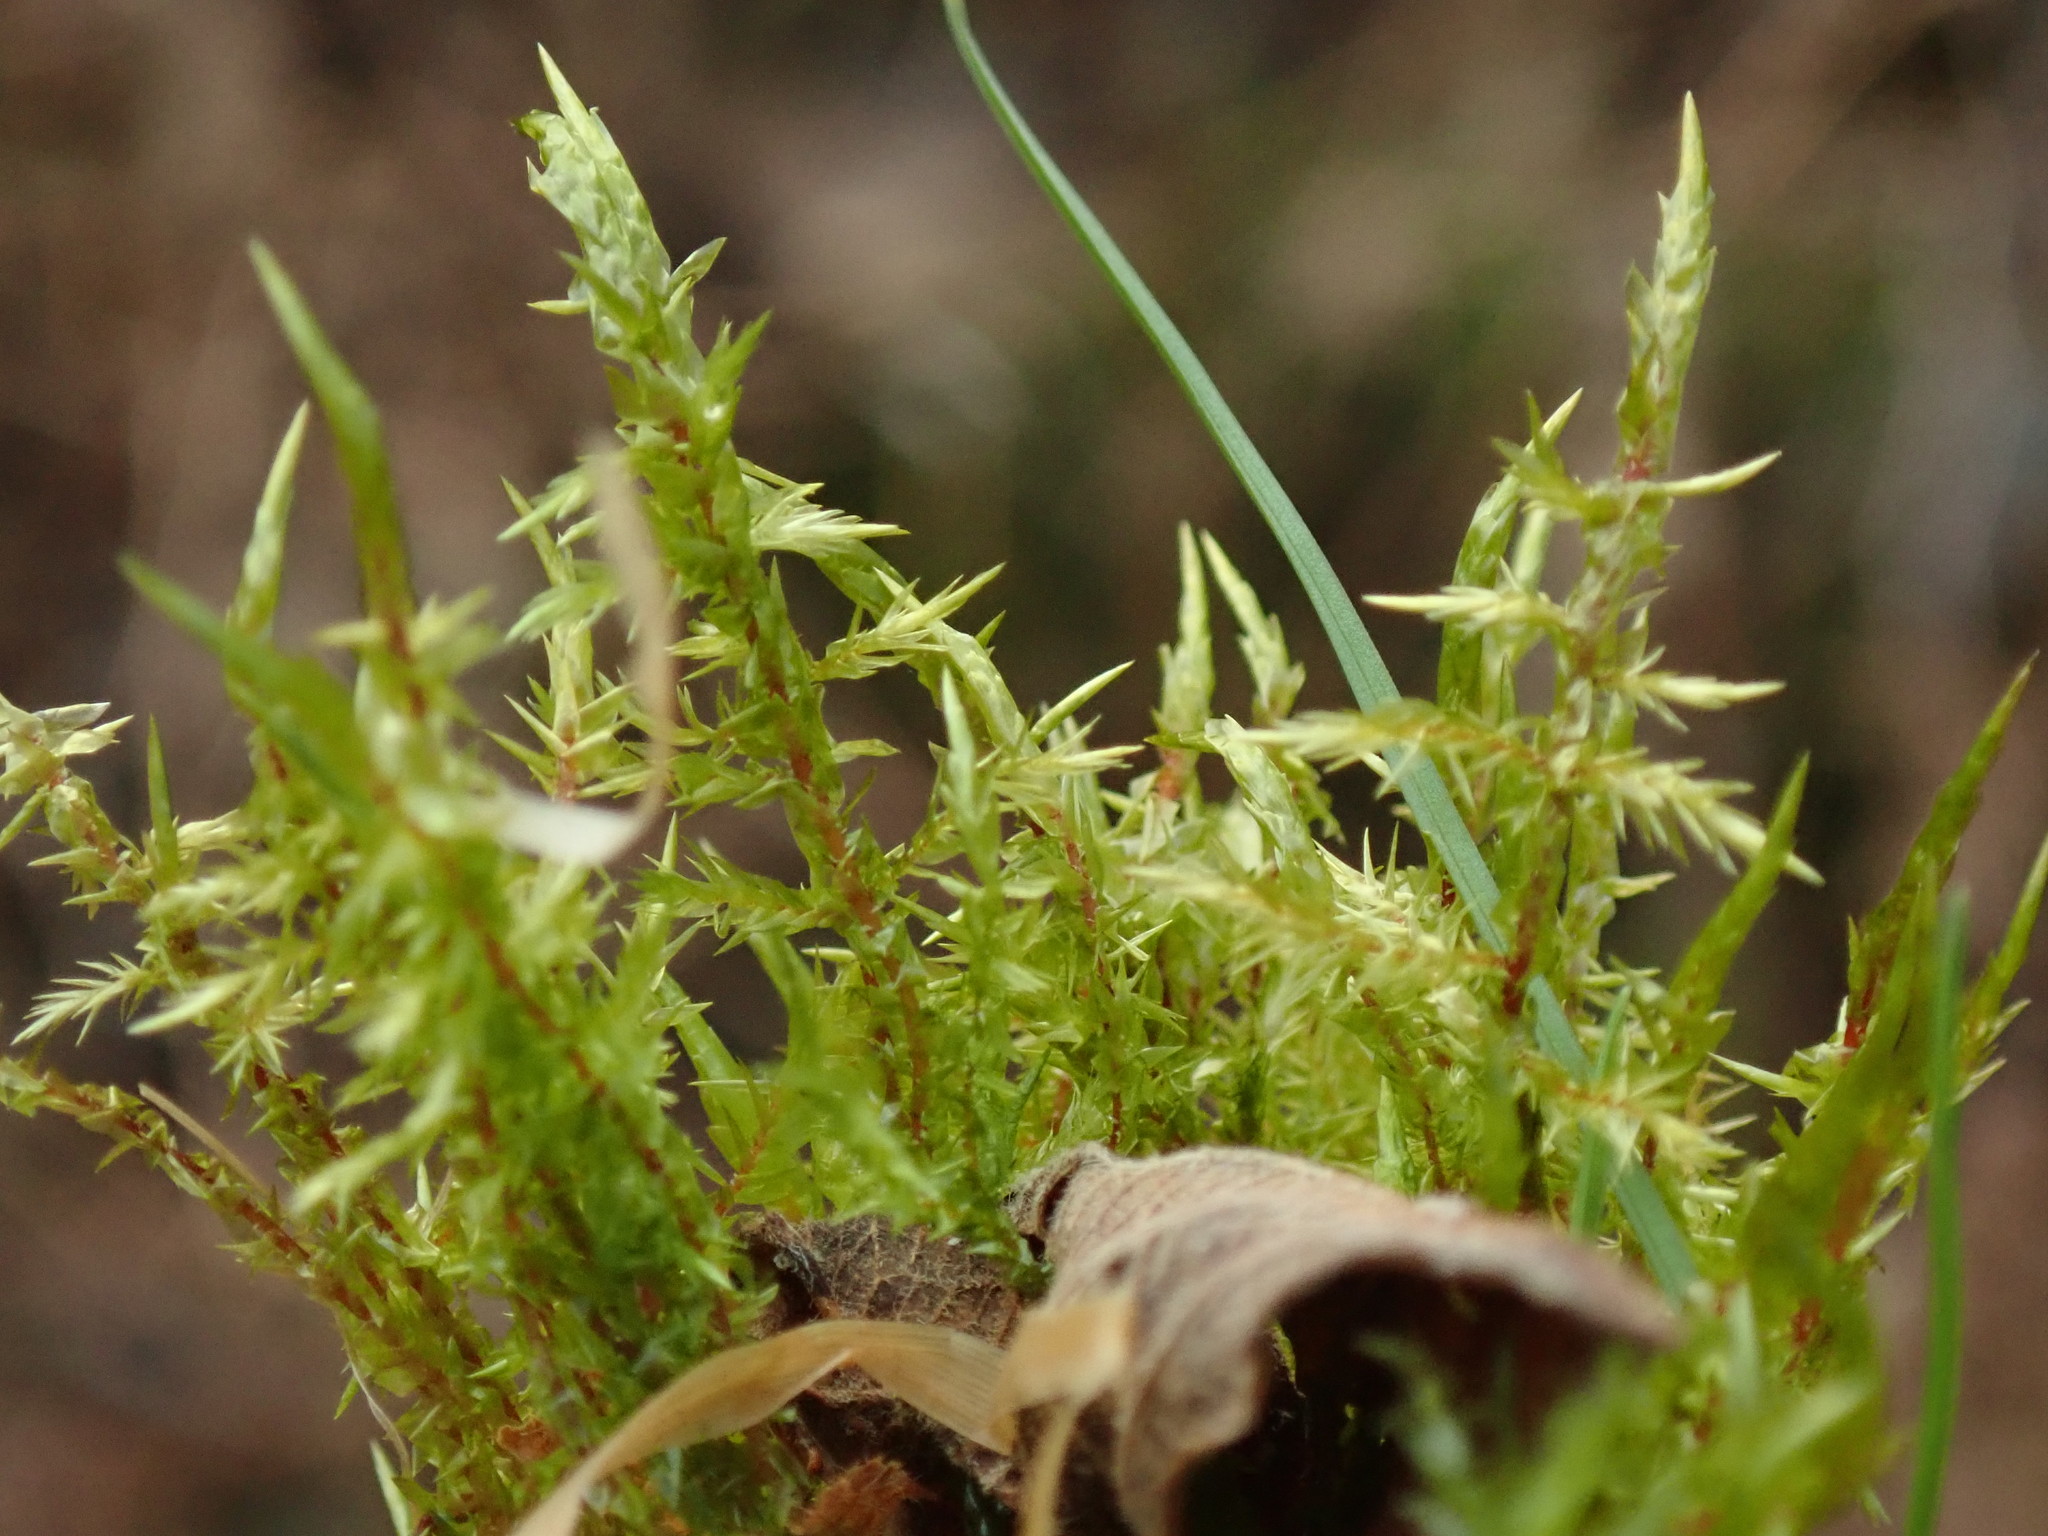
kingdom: Plantae
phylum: Bryophyta
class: Bryopsida
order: Hypnales
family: Pylaisiaceae
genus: Calliergonella
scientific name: Calliergonella cuspidata
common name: Common large wetland moss
